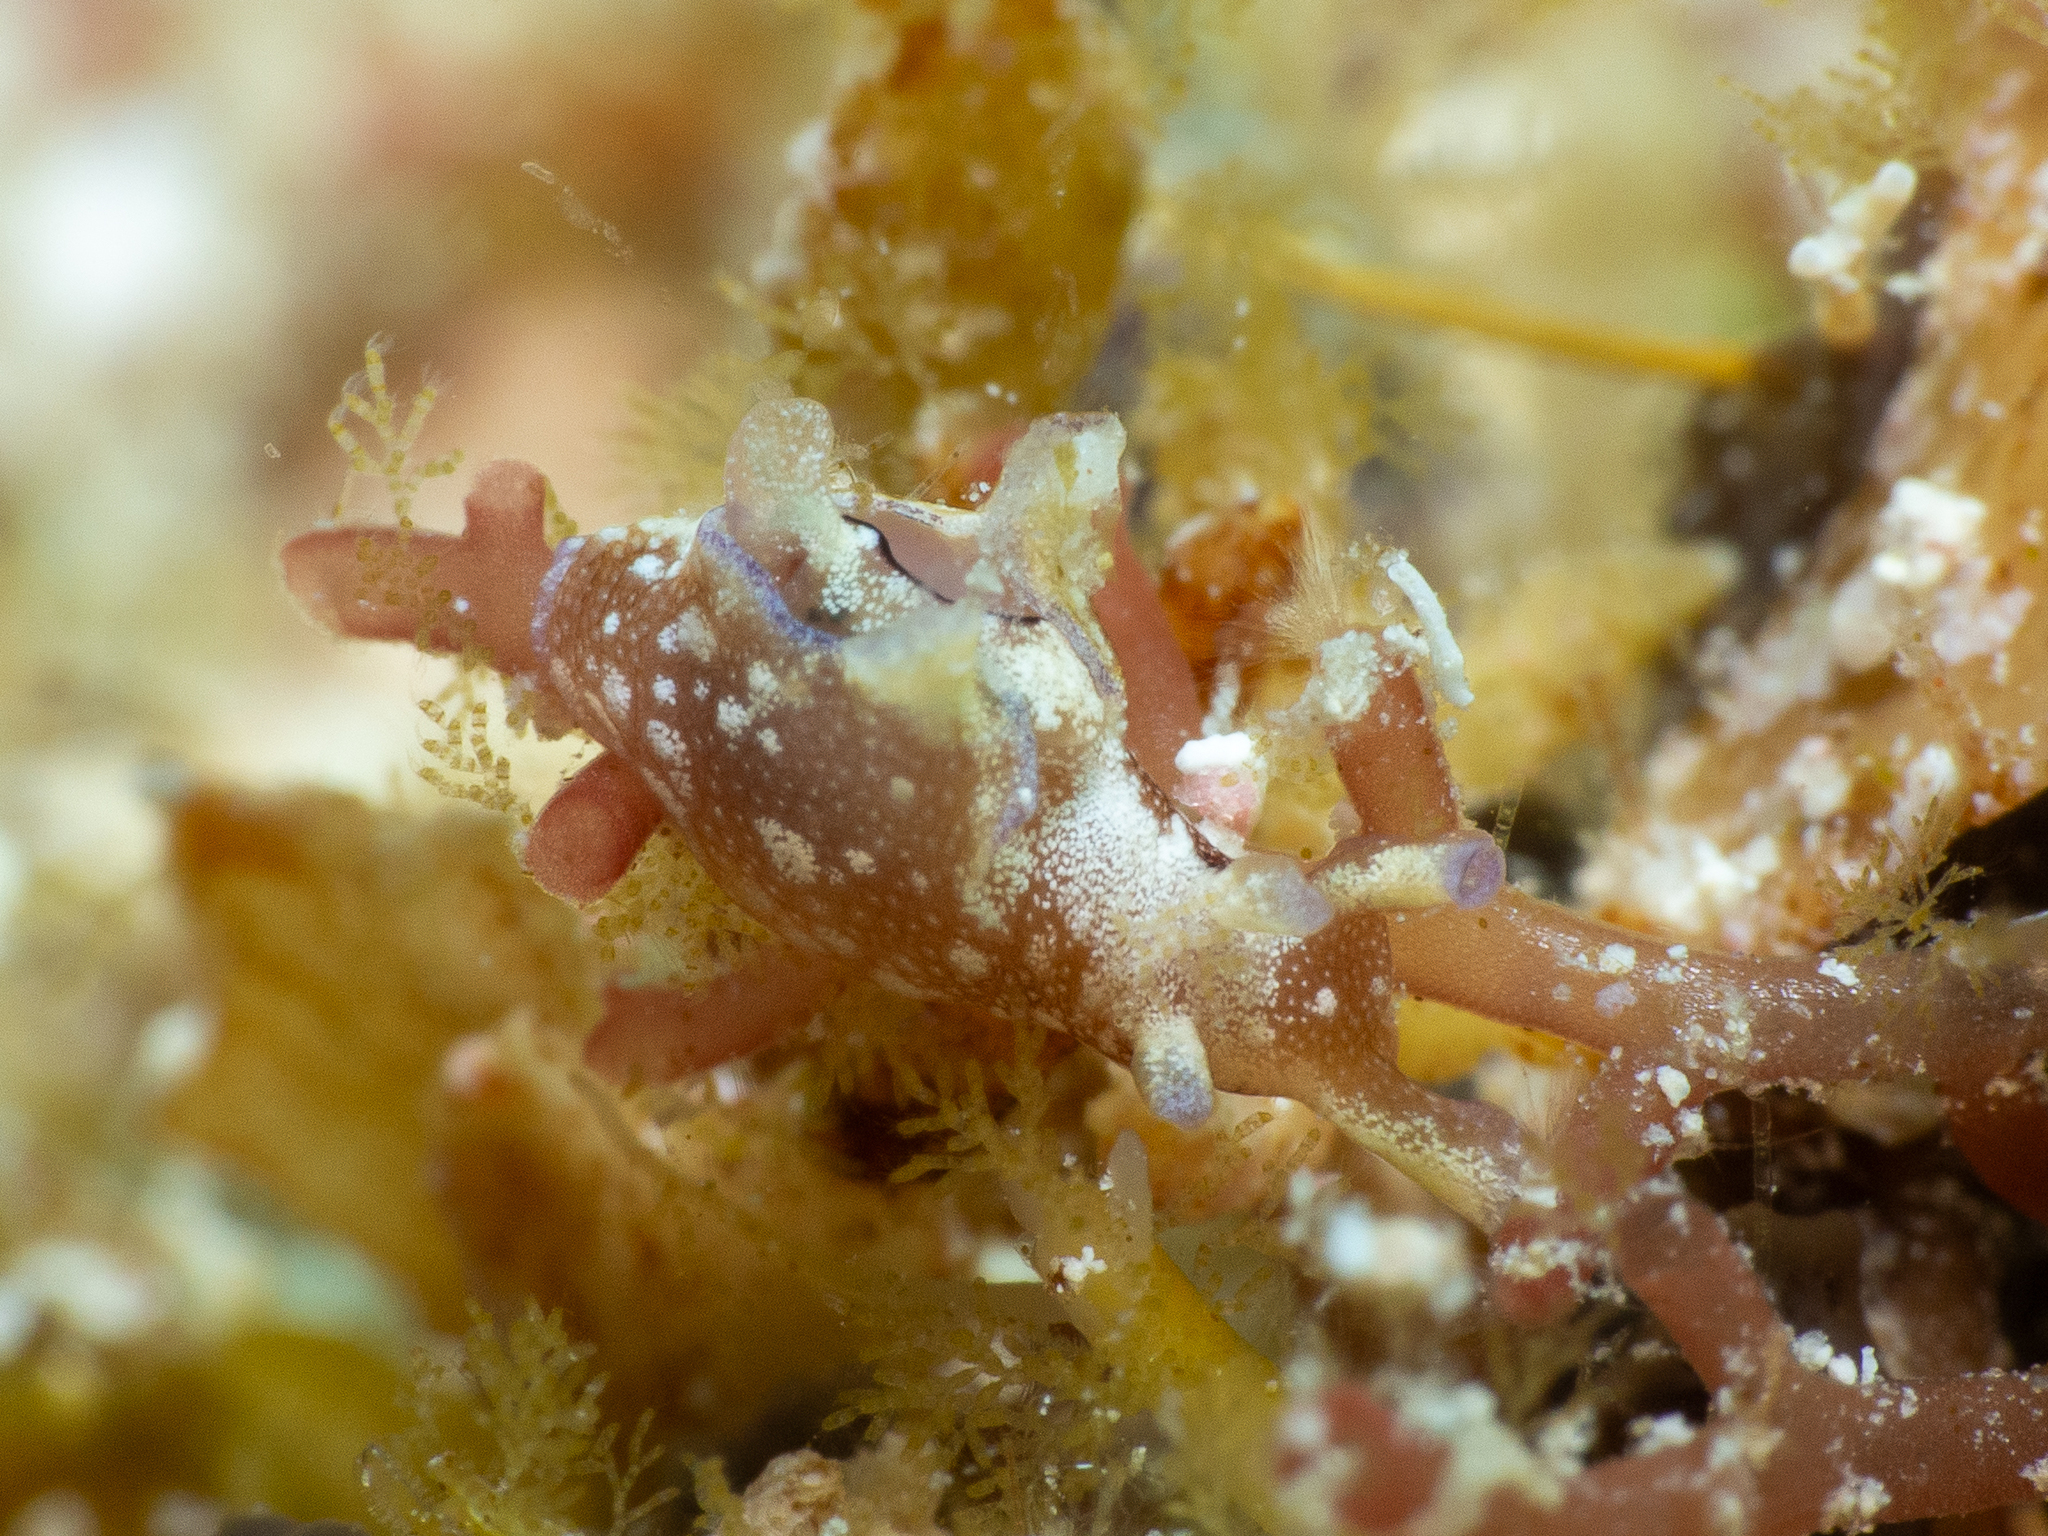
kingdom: Animalia
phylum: Mollusca
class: Gastropoda
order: Aplysiida
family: Aplysiidae
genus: Aplysia
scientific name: Aplysia parvula
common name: Dwarf sea hare
